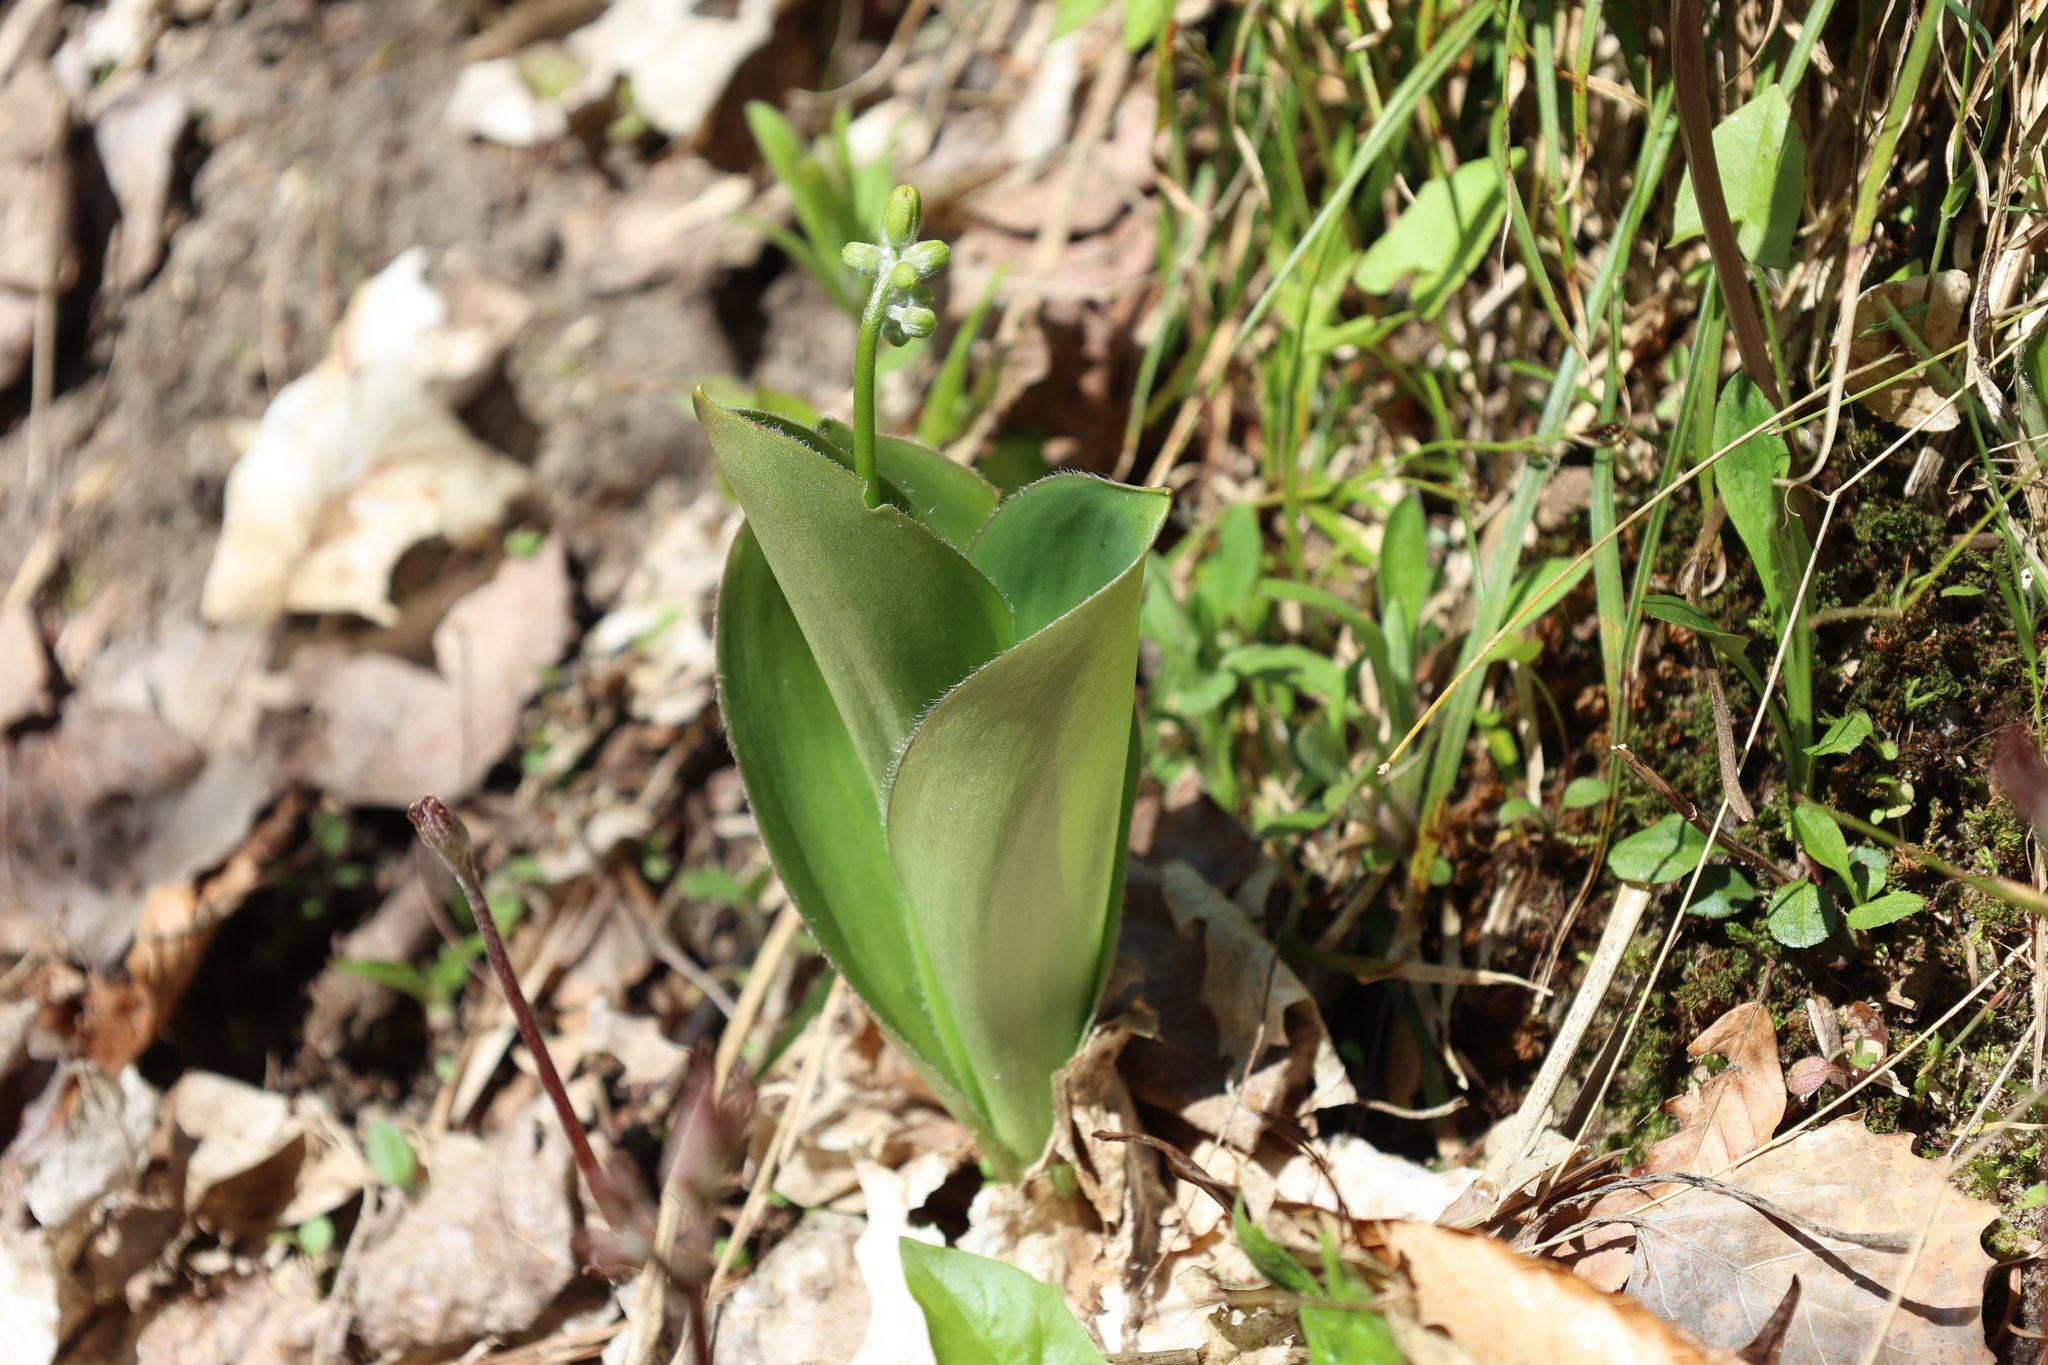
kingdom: Plantae
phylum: Tracheophyta
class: Liliopsida
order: Liliales
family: Liliaceae
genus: Clintonia
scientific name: Clintonia borealis
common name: Yellow clintonia
